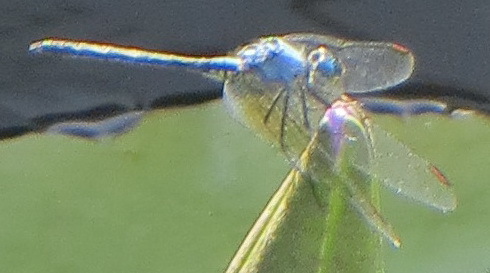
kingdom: Animalia
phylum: Arthropoda
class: Insecta
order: Odonata
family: Libellulidae
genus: Trithemis
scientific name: Trithemis stictica
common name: Jaunty dropwing
